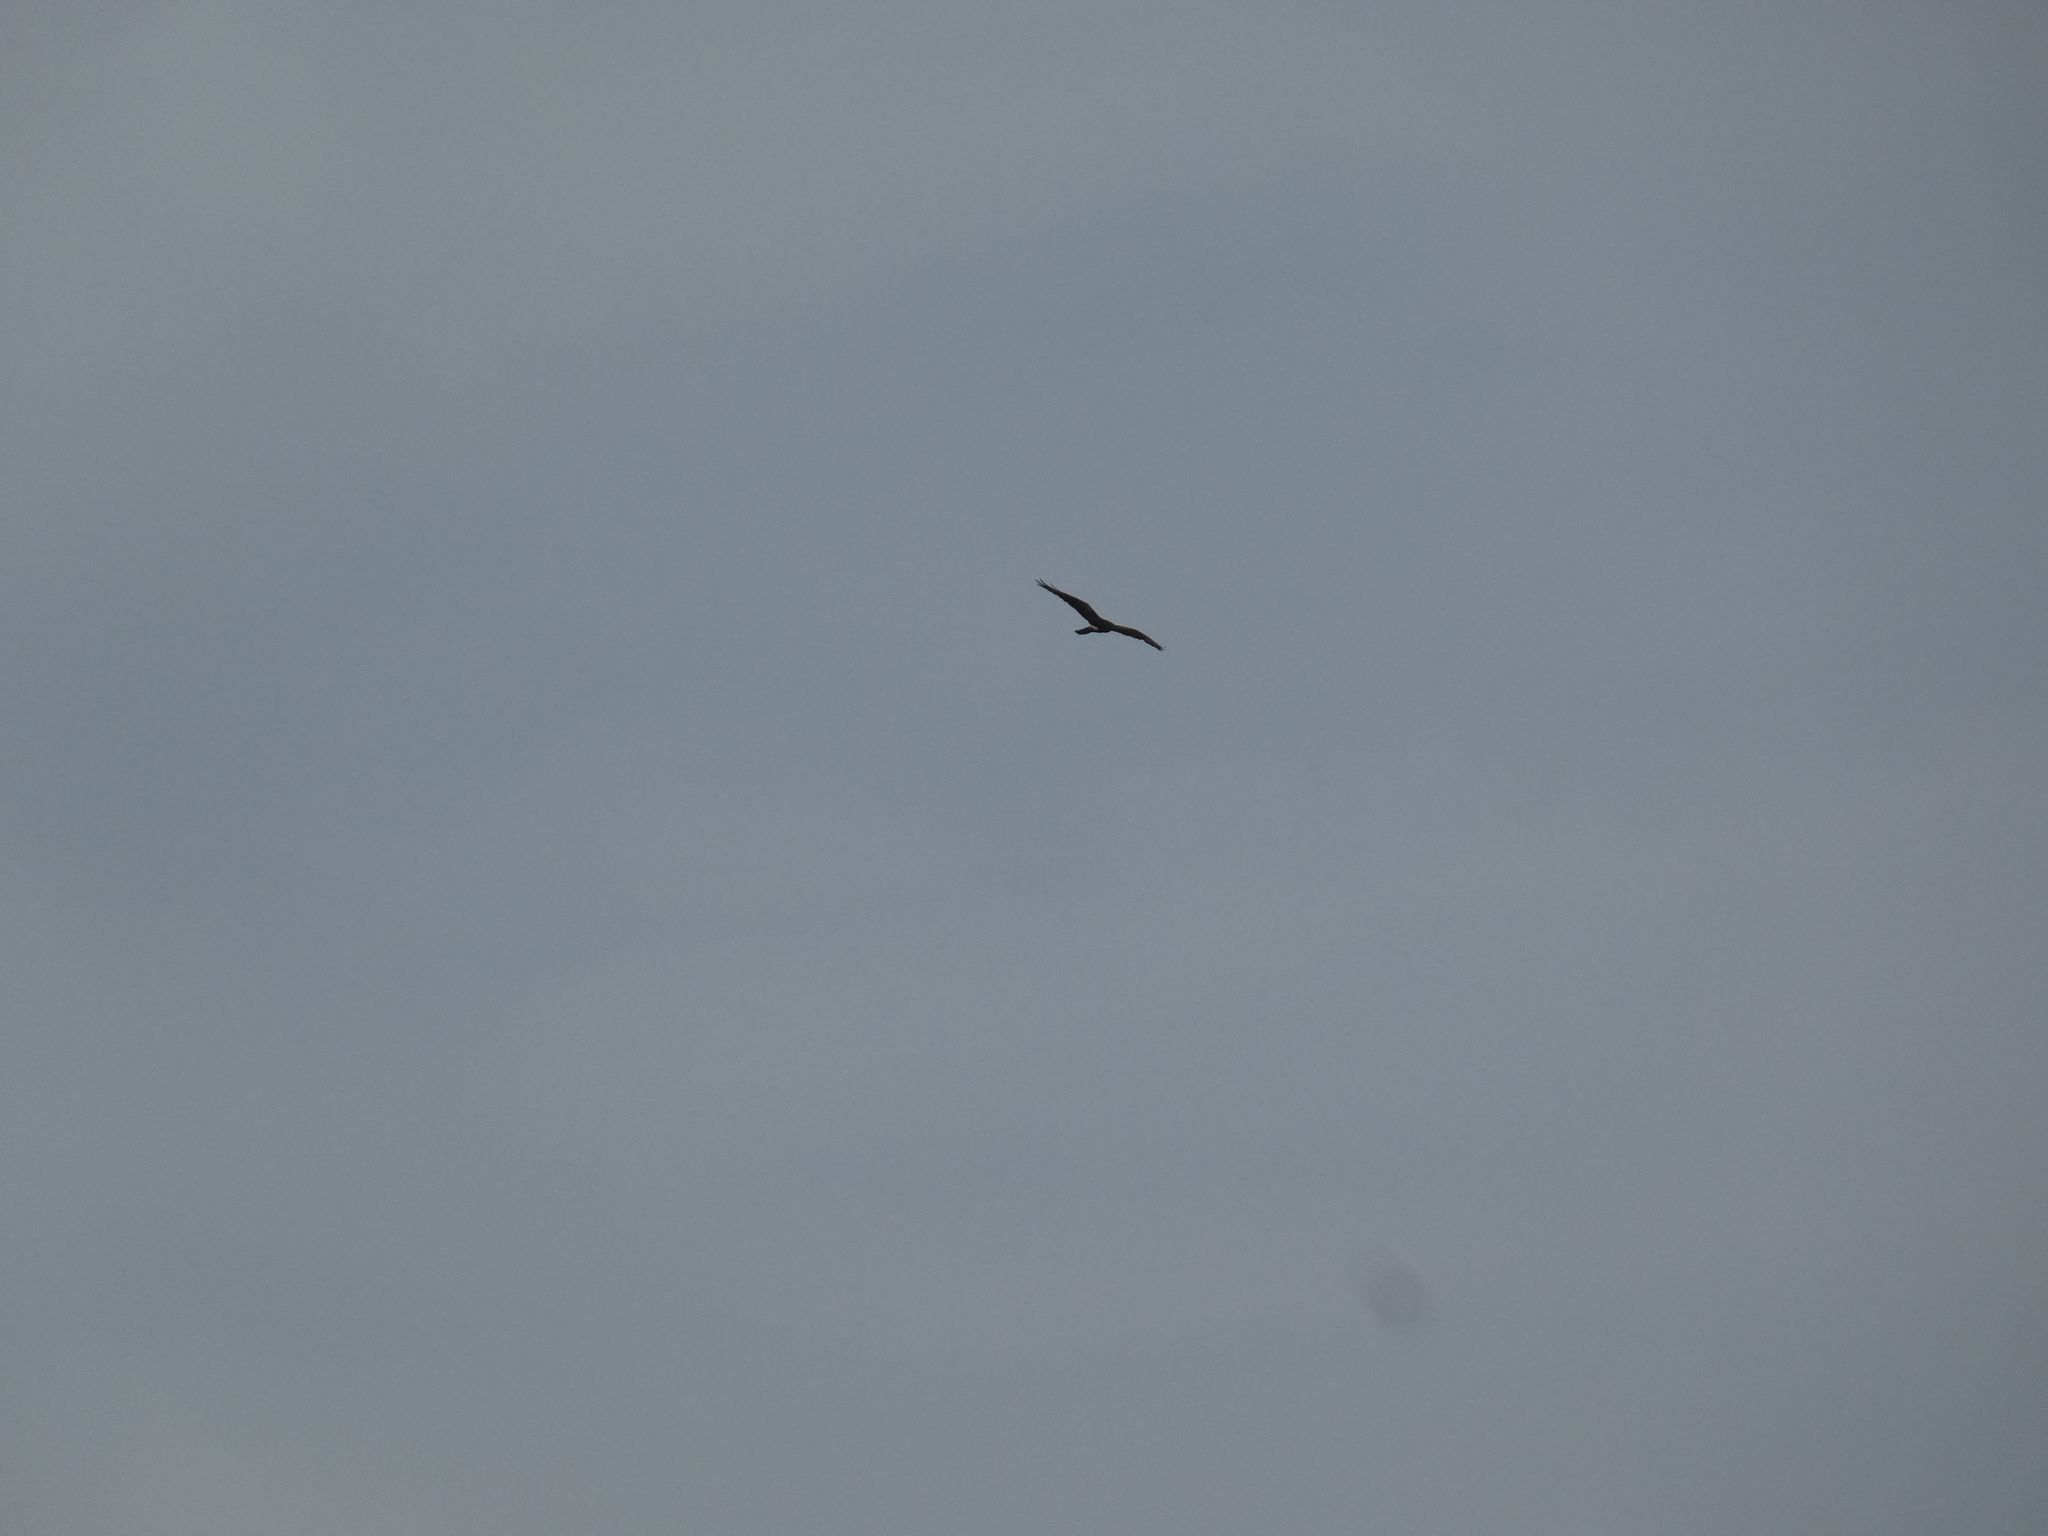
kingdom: Animalia
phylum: Chordata
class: Aves
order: Accipitriformes
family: Accipitridae
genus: Circus
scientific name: Circus pygargus
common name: Montagu's harrier
